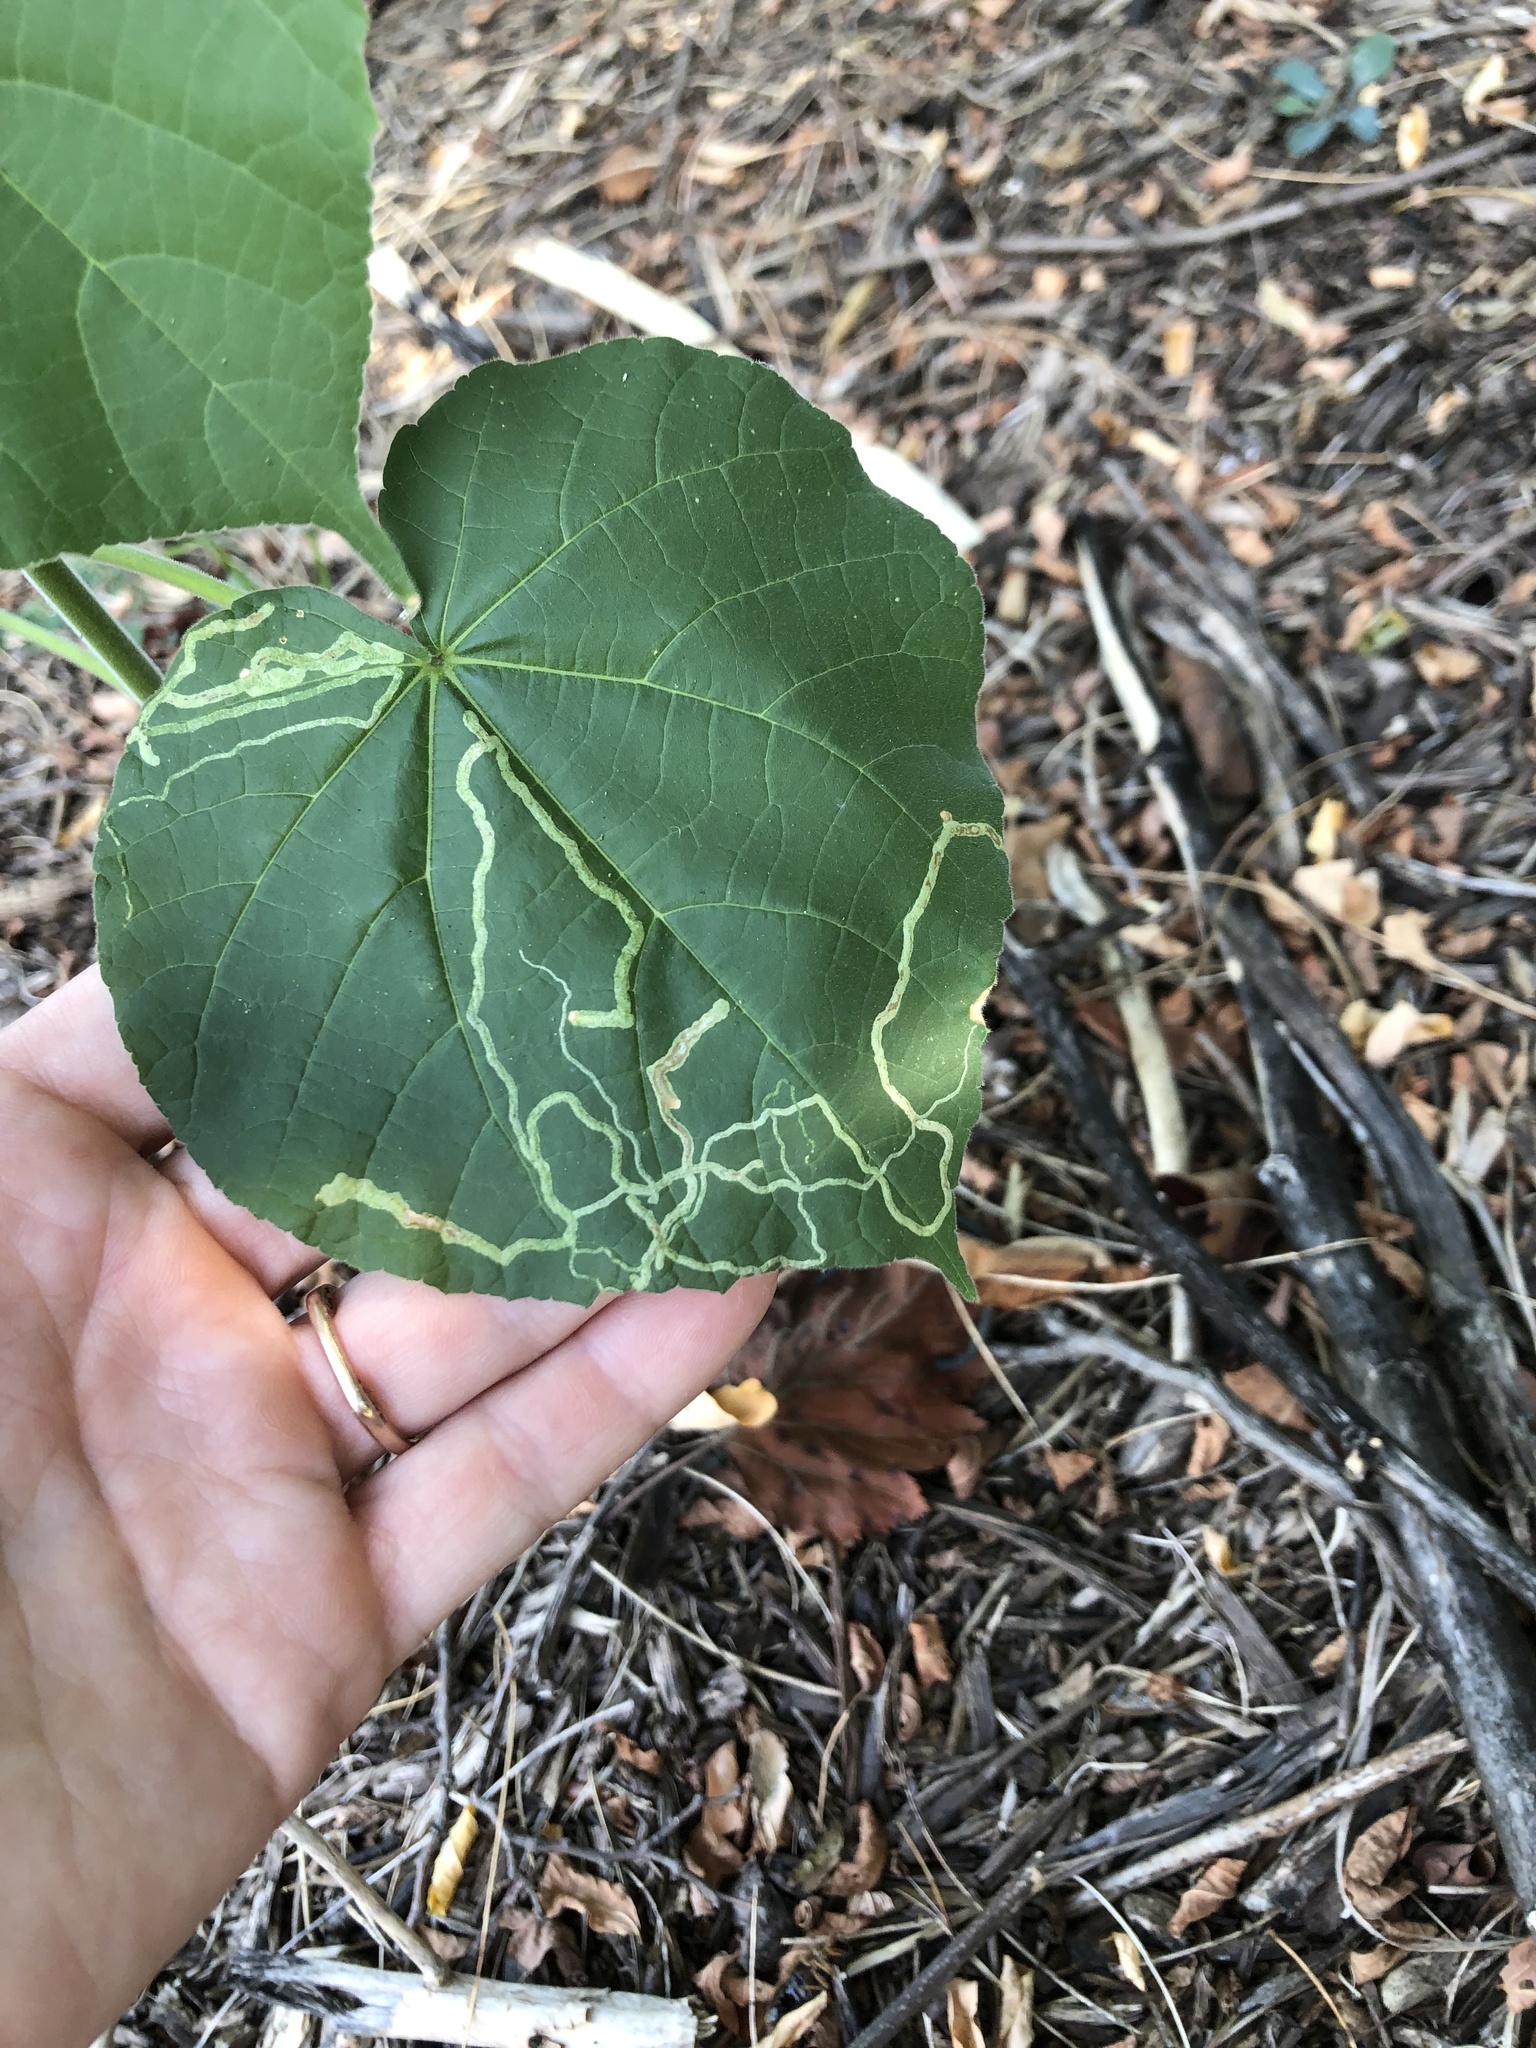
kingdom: Animalia
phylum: Arthropoda
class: Insecta
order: Diptera
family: Agromyzidae
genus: Calycomyza
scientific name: Calycomyza malvae
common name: Mallow leaf miner
